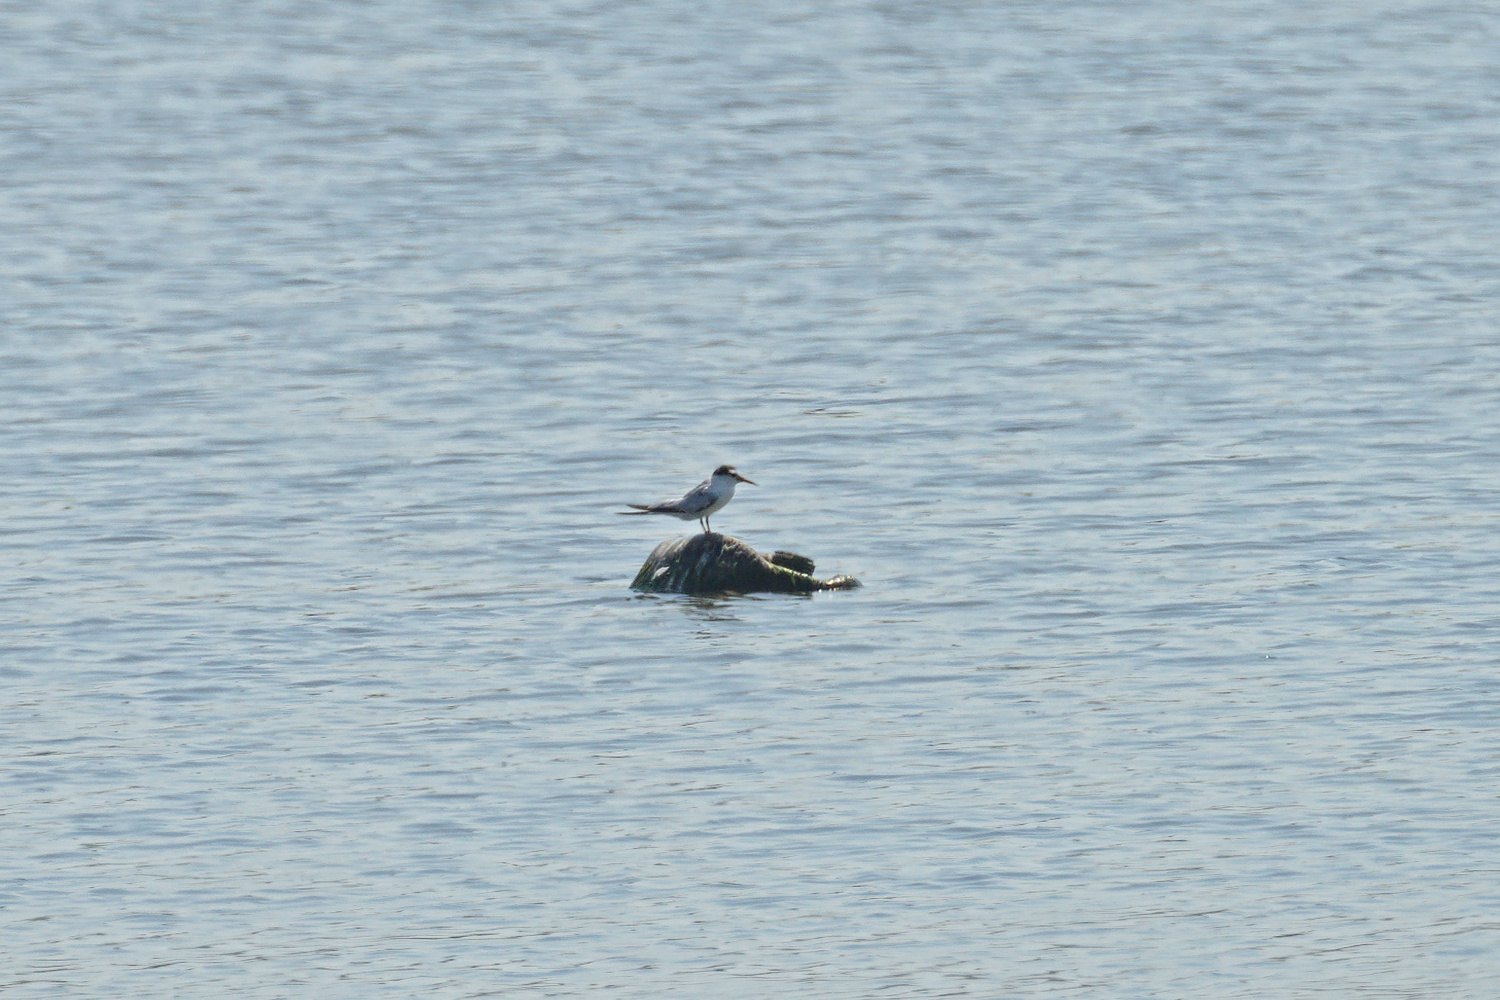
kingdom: Animalia
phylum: Chordata
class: Aves
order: Charadriiformes
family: Laridae
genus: Sternula
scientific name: Sternula albifrons
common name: Little tern
